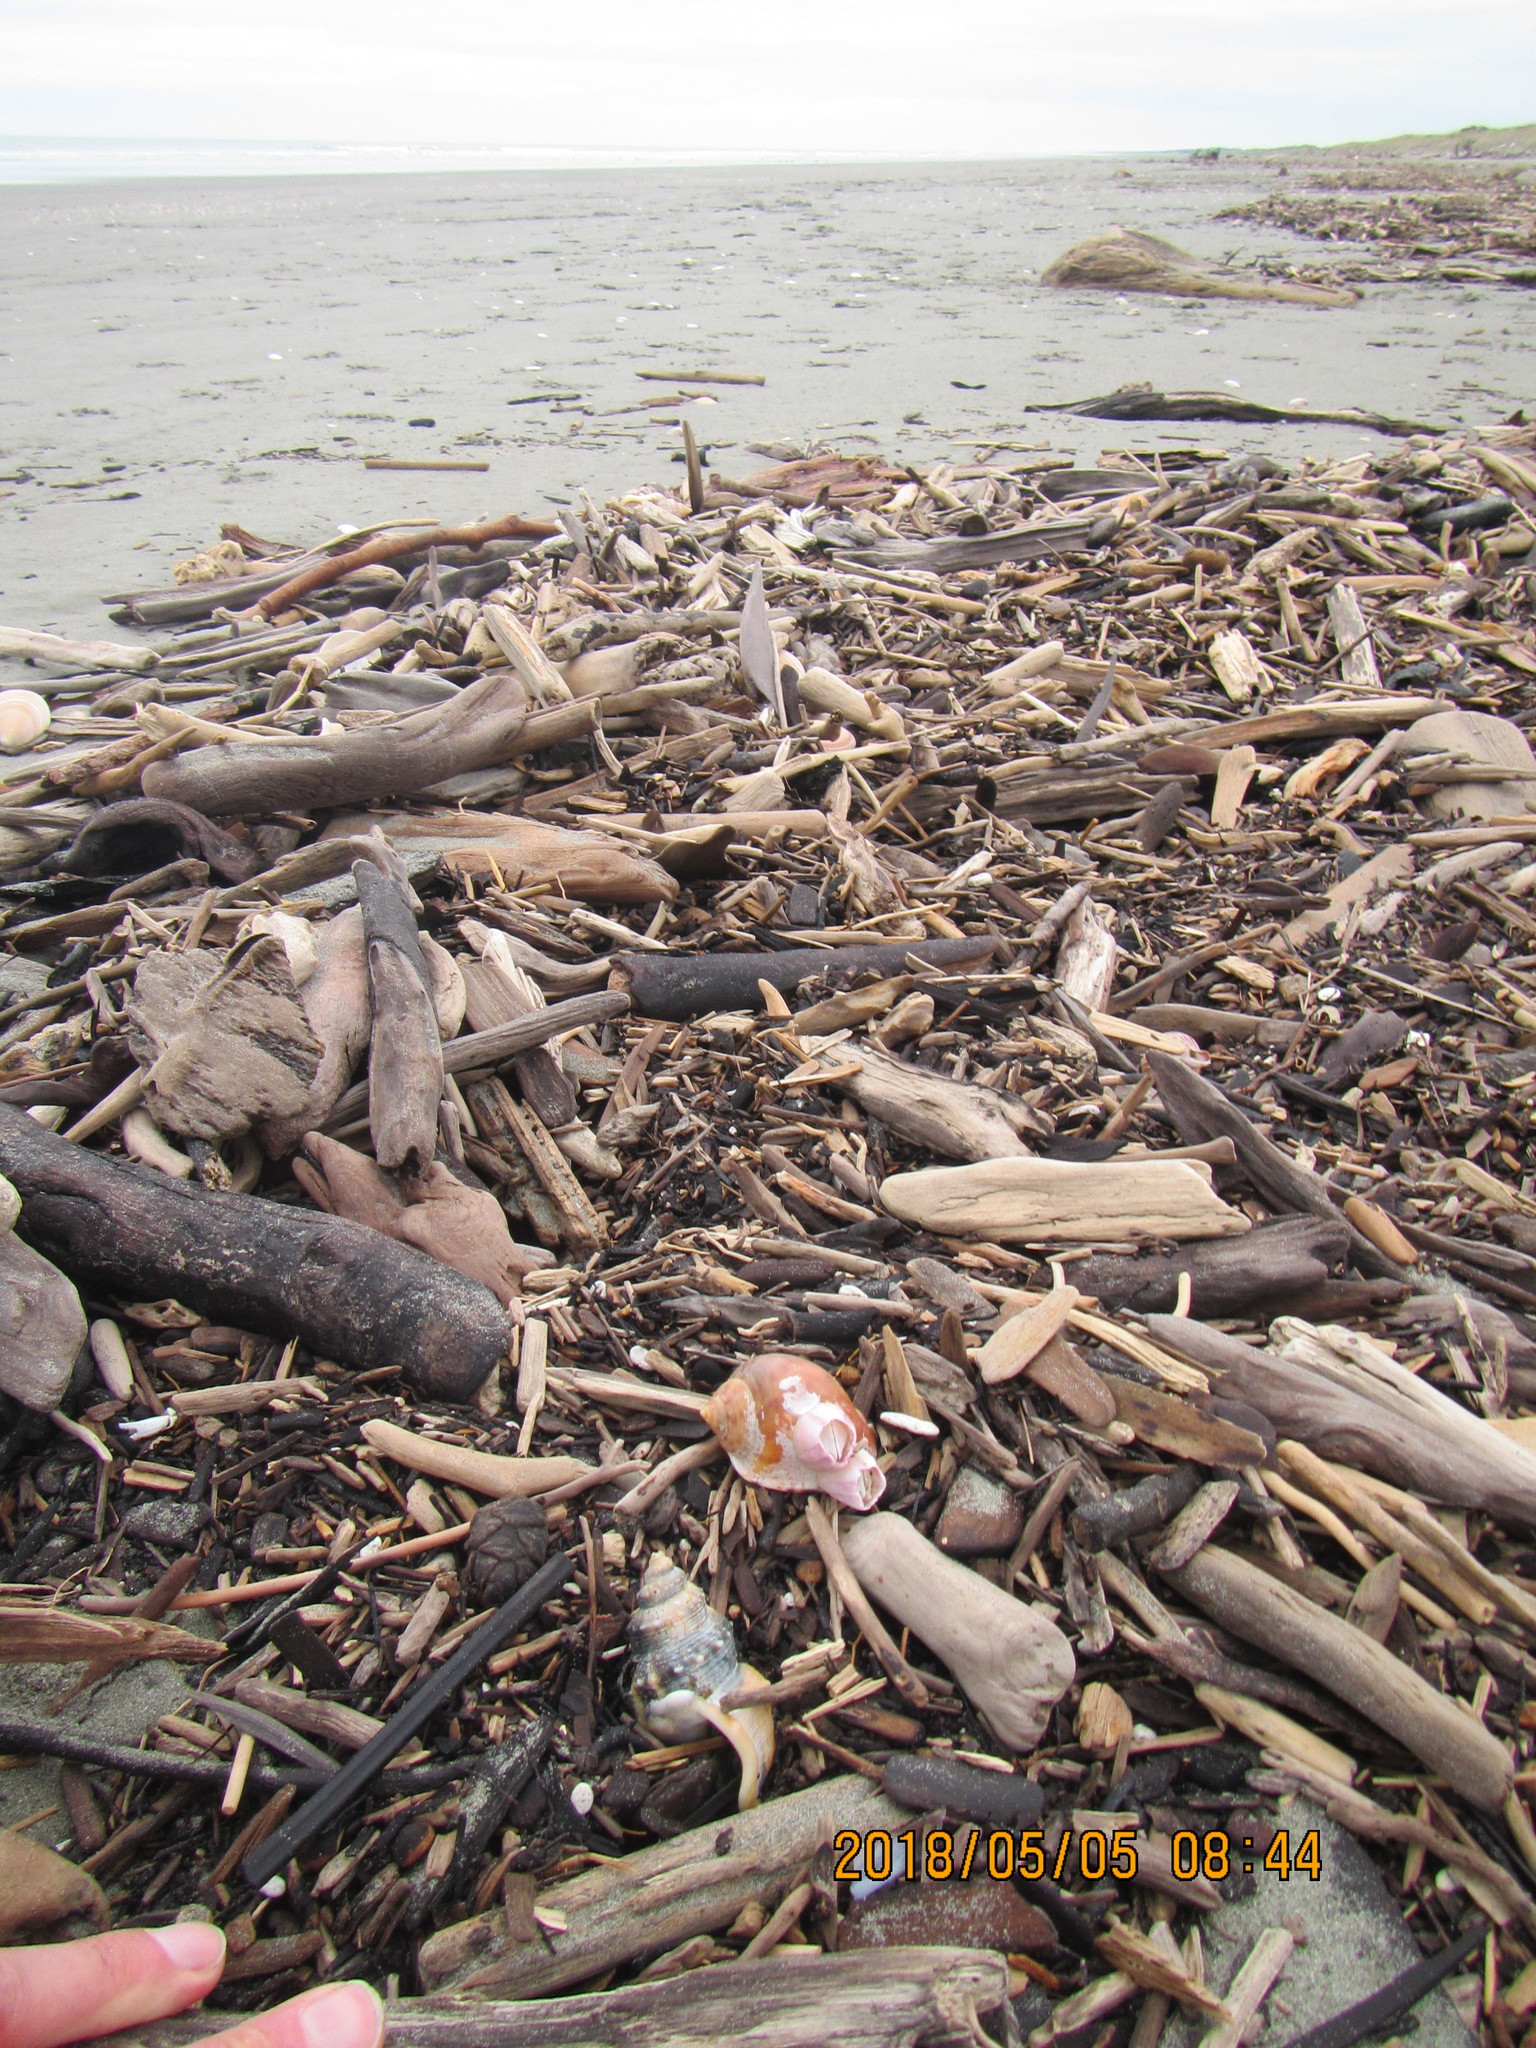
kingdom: Animalia
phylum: Mollusca
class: Gastropoda
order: Littorinimorpha
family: Cassidae
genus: Semicassis
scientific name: Semicassis pyrum
